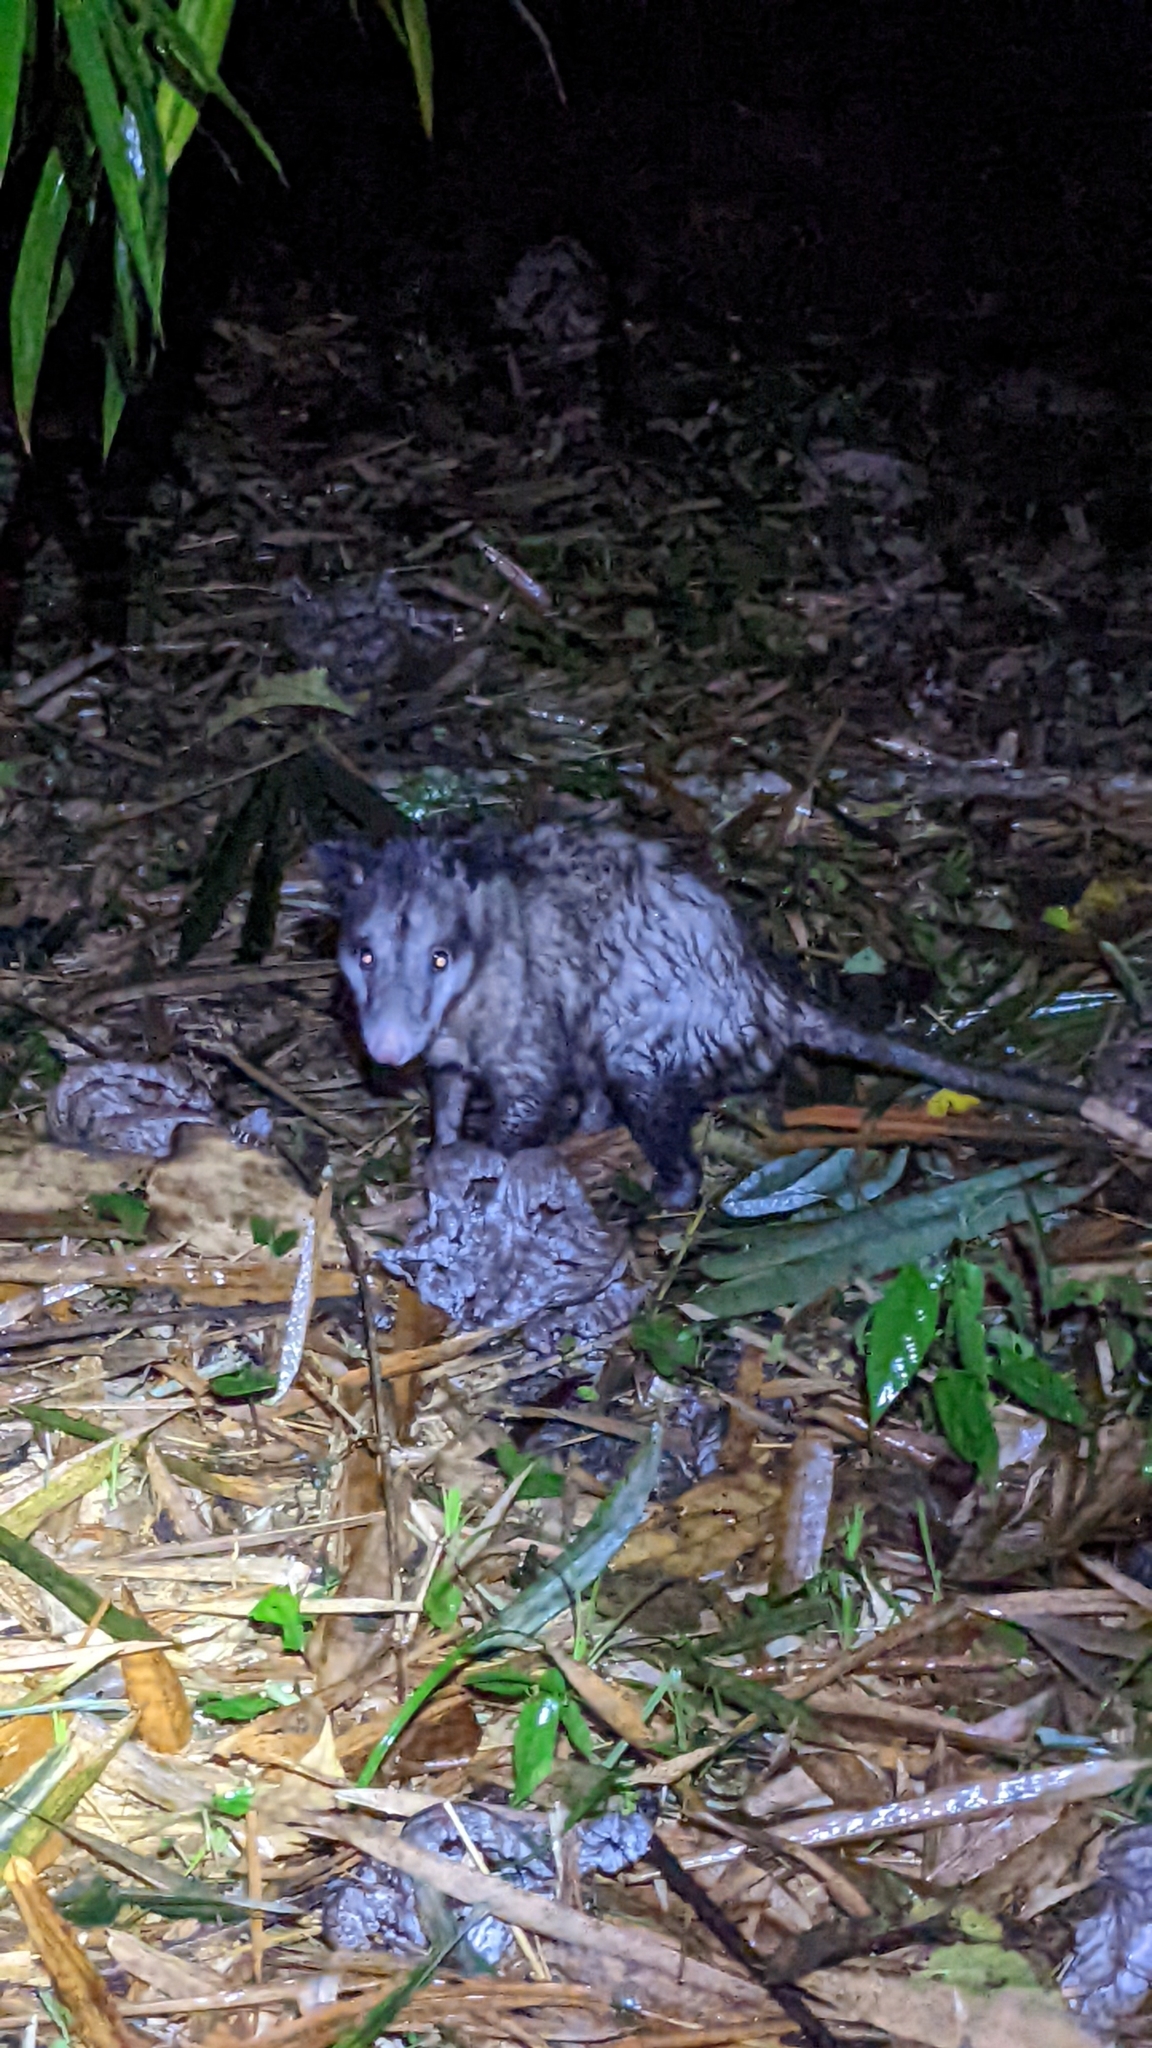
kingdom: Animalia
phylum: Chordata
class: Mammalia
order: Didelphimorphia
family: Didelphidae
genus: Didelphis
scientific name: Didelphis marsupialis
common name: Common opossum
